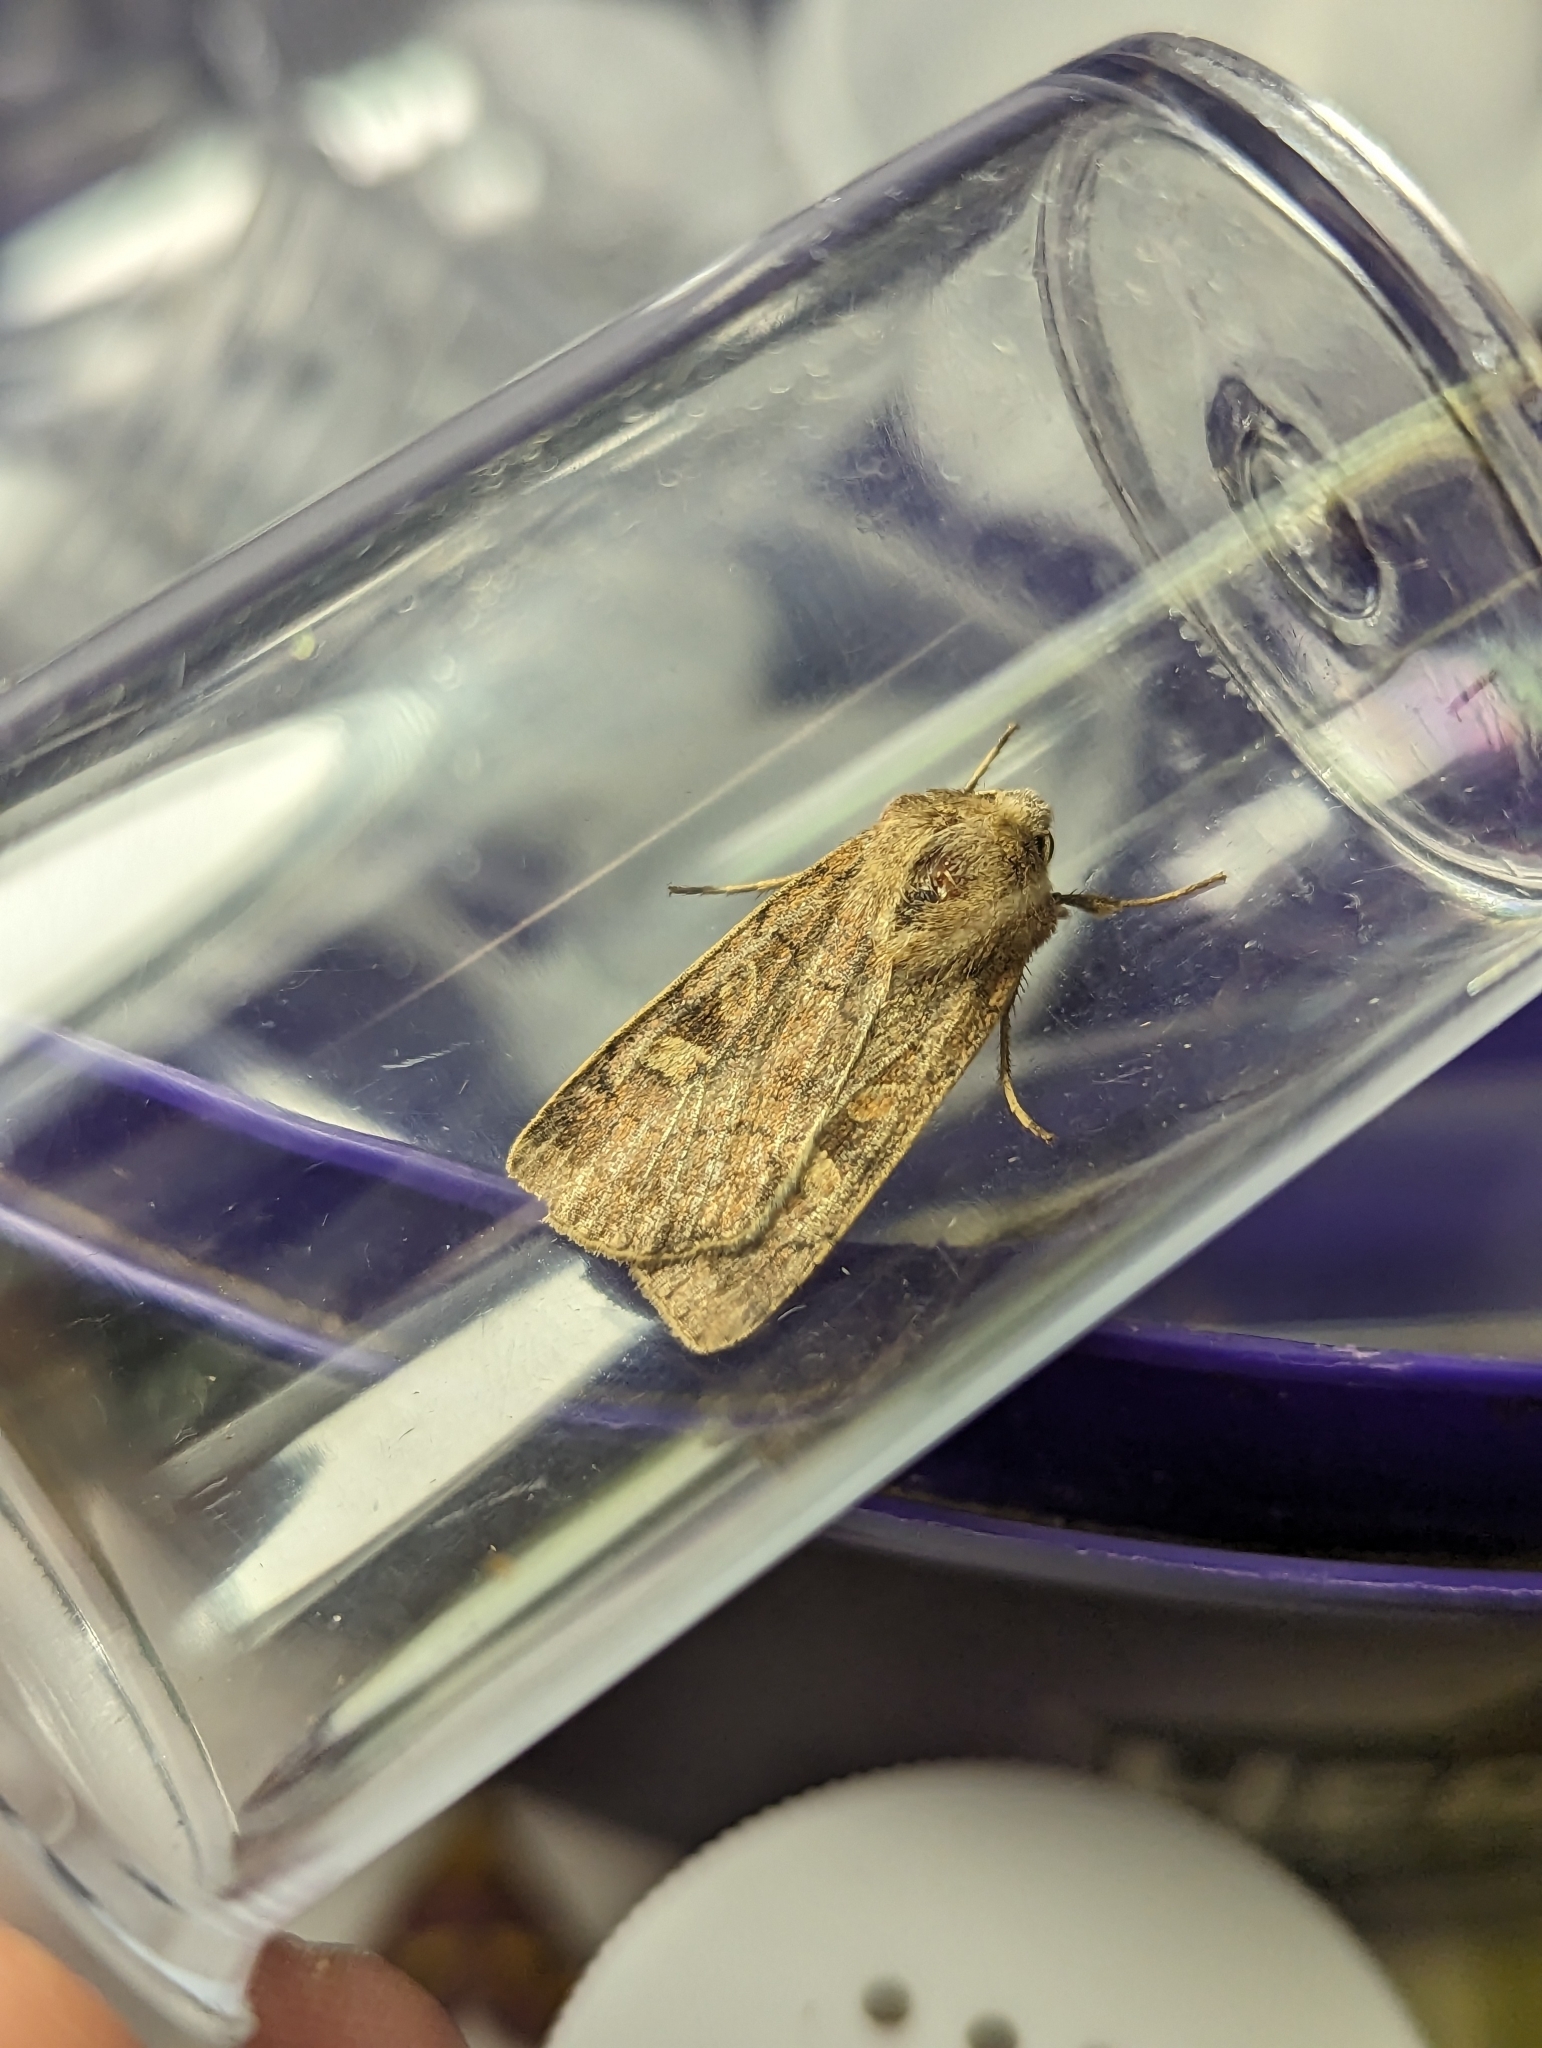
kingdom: Animalia
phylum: Arthropoda
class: Insecta
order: Lepidoptera
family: Noctuidae
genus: Xestia
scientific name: Xestia xanthographa
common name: Square-spot rustic
